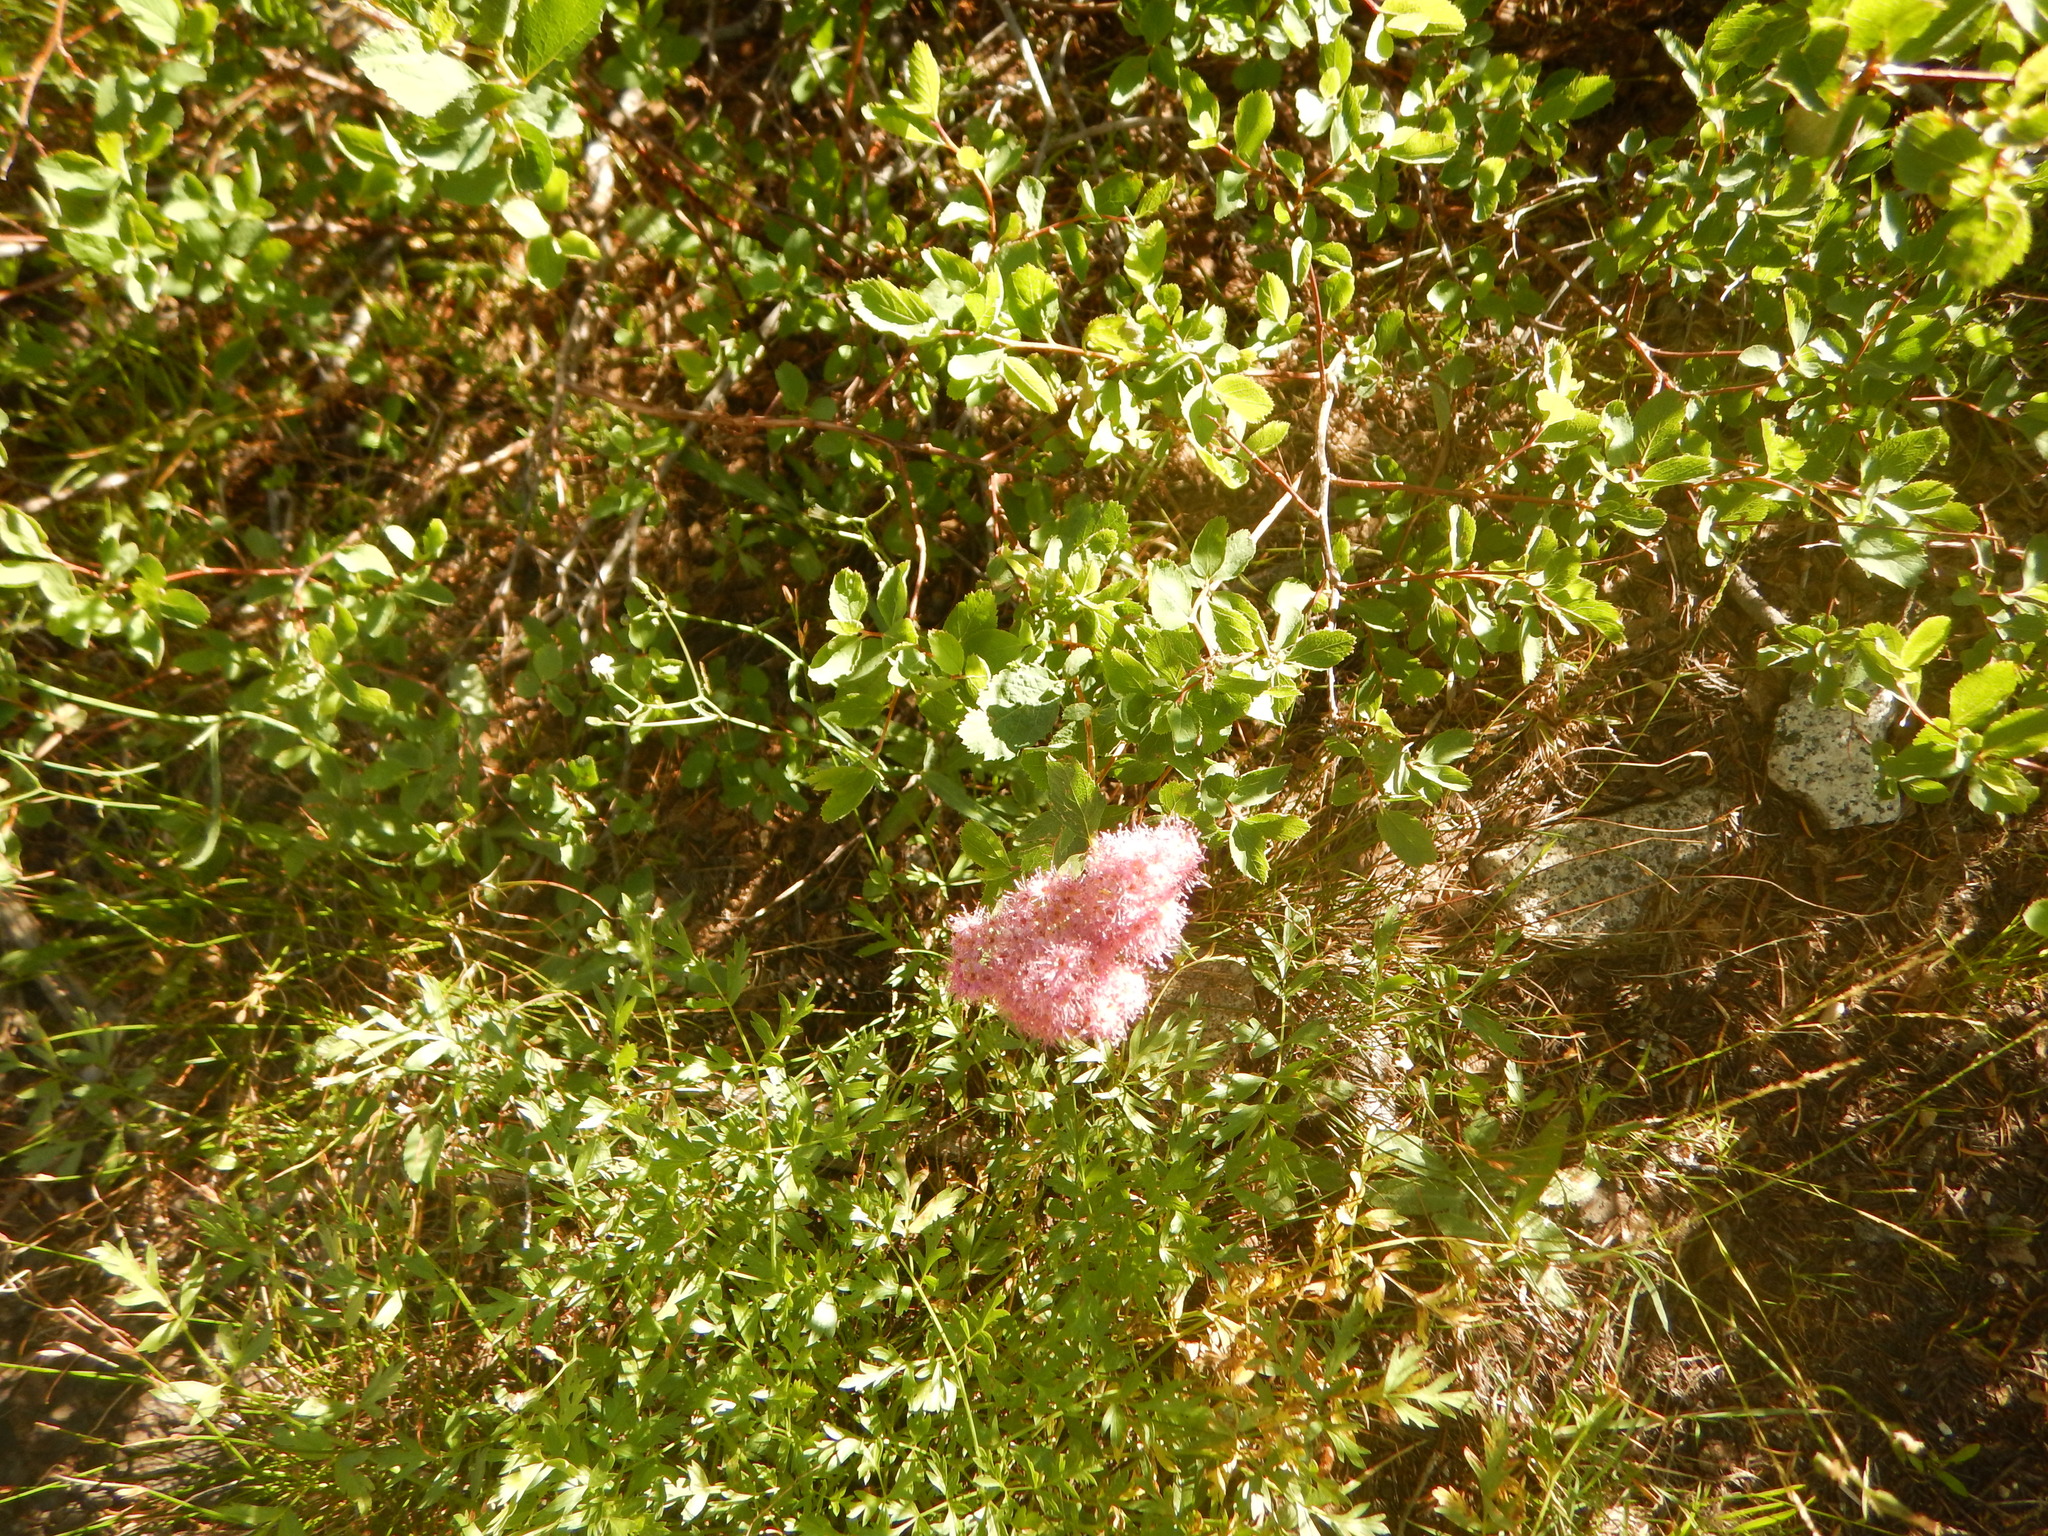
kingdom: Plantae
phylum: Tracheophyta
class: Magnoliopsida
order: Rosales
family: Rosaceae
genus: Spiraea
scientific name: Spiraea splendens
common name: Subalpine meadowsweet
